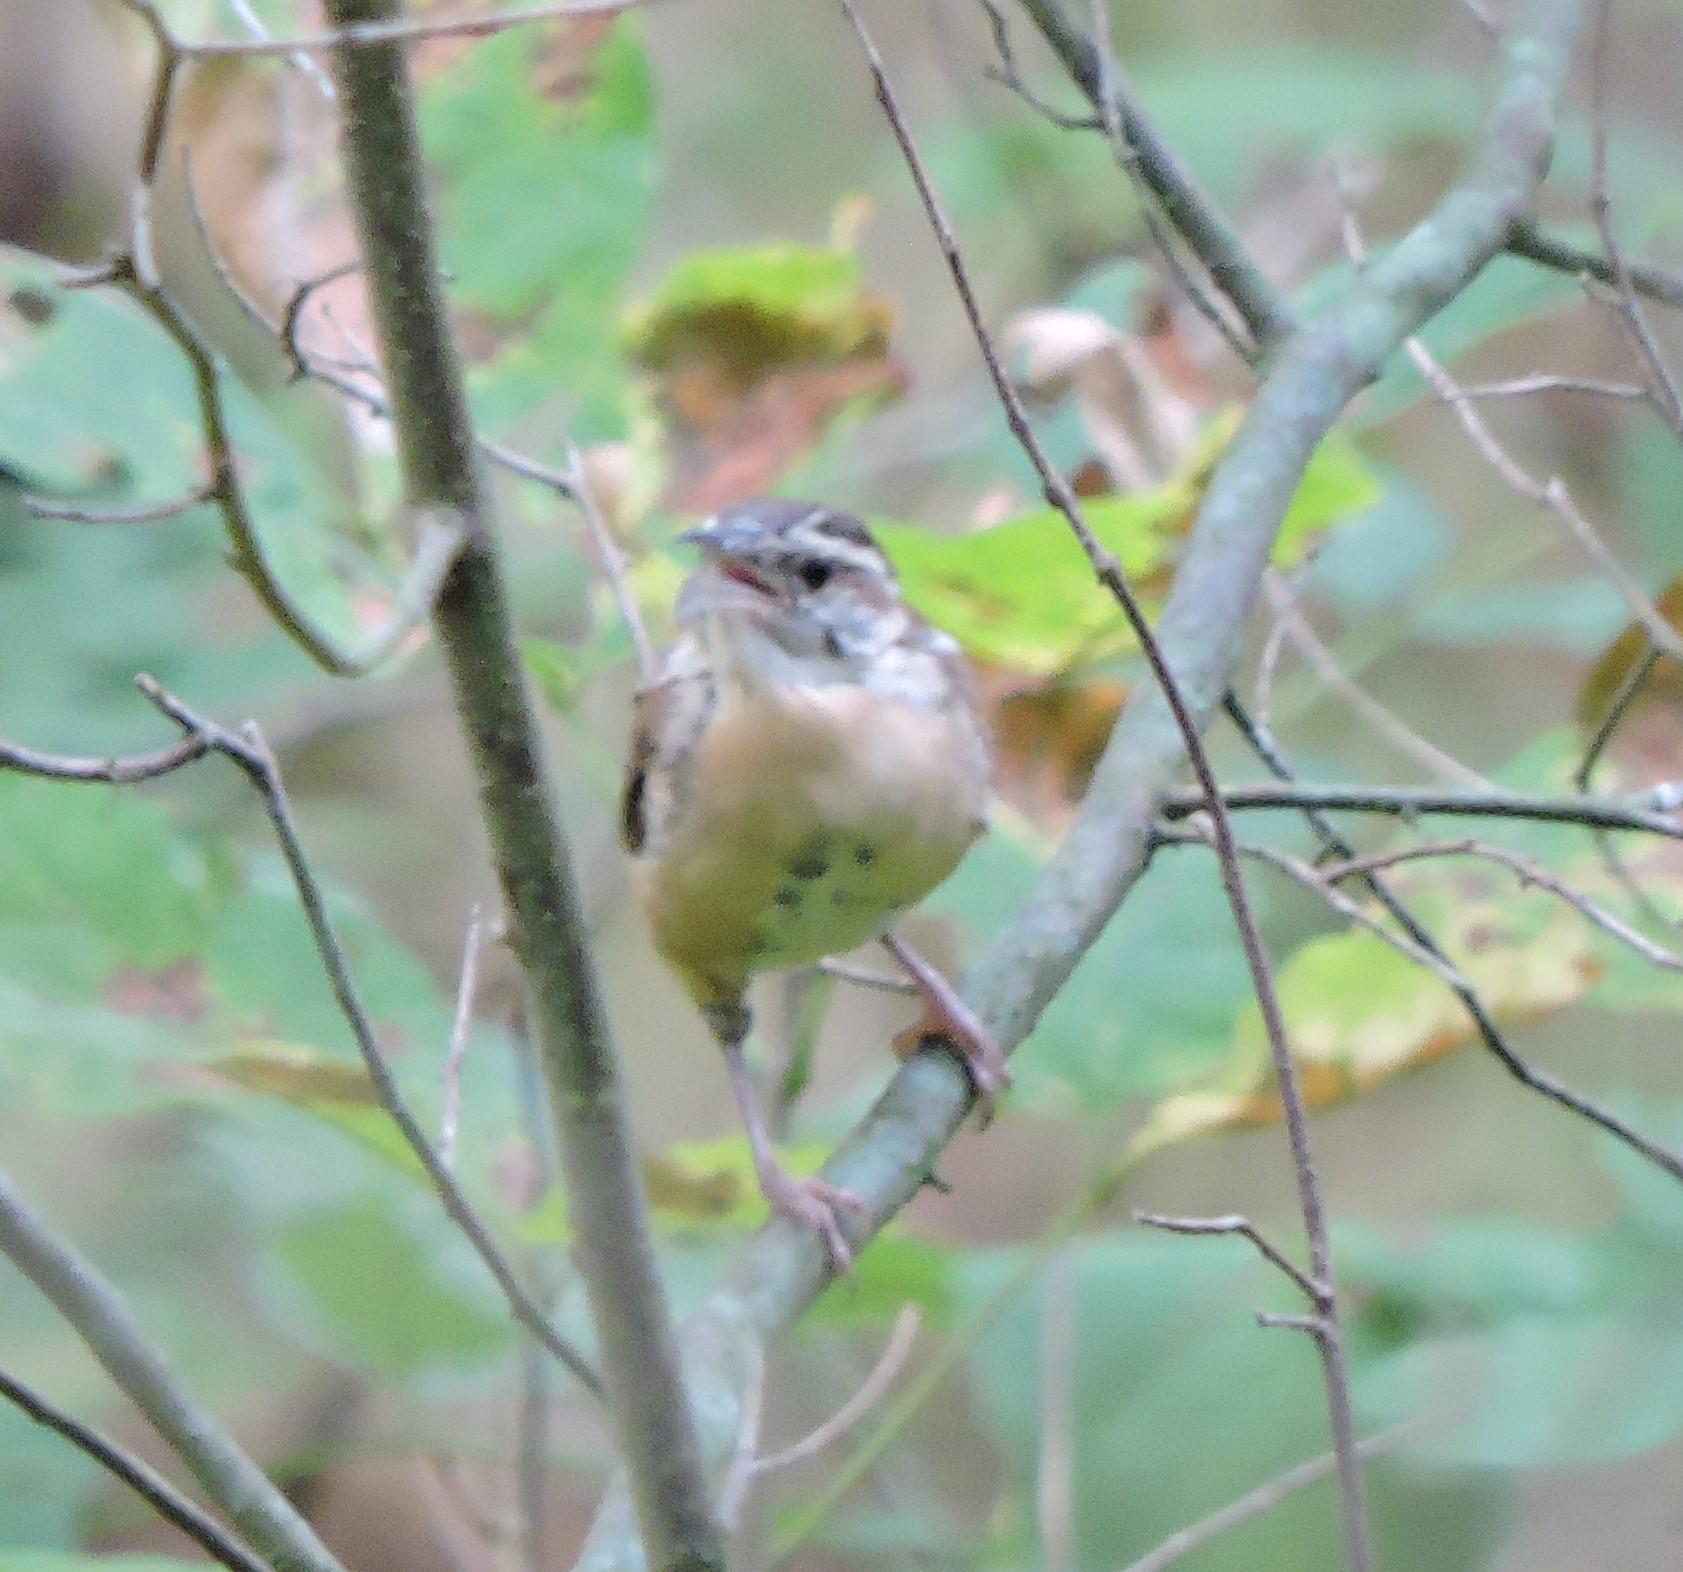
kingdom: Animalia
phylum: Chordata
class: Aves
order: Passeriformes
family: Troglodytidae
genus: Thryothorus
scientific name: Thryothorus ludovicianus
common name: Carolina wren
